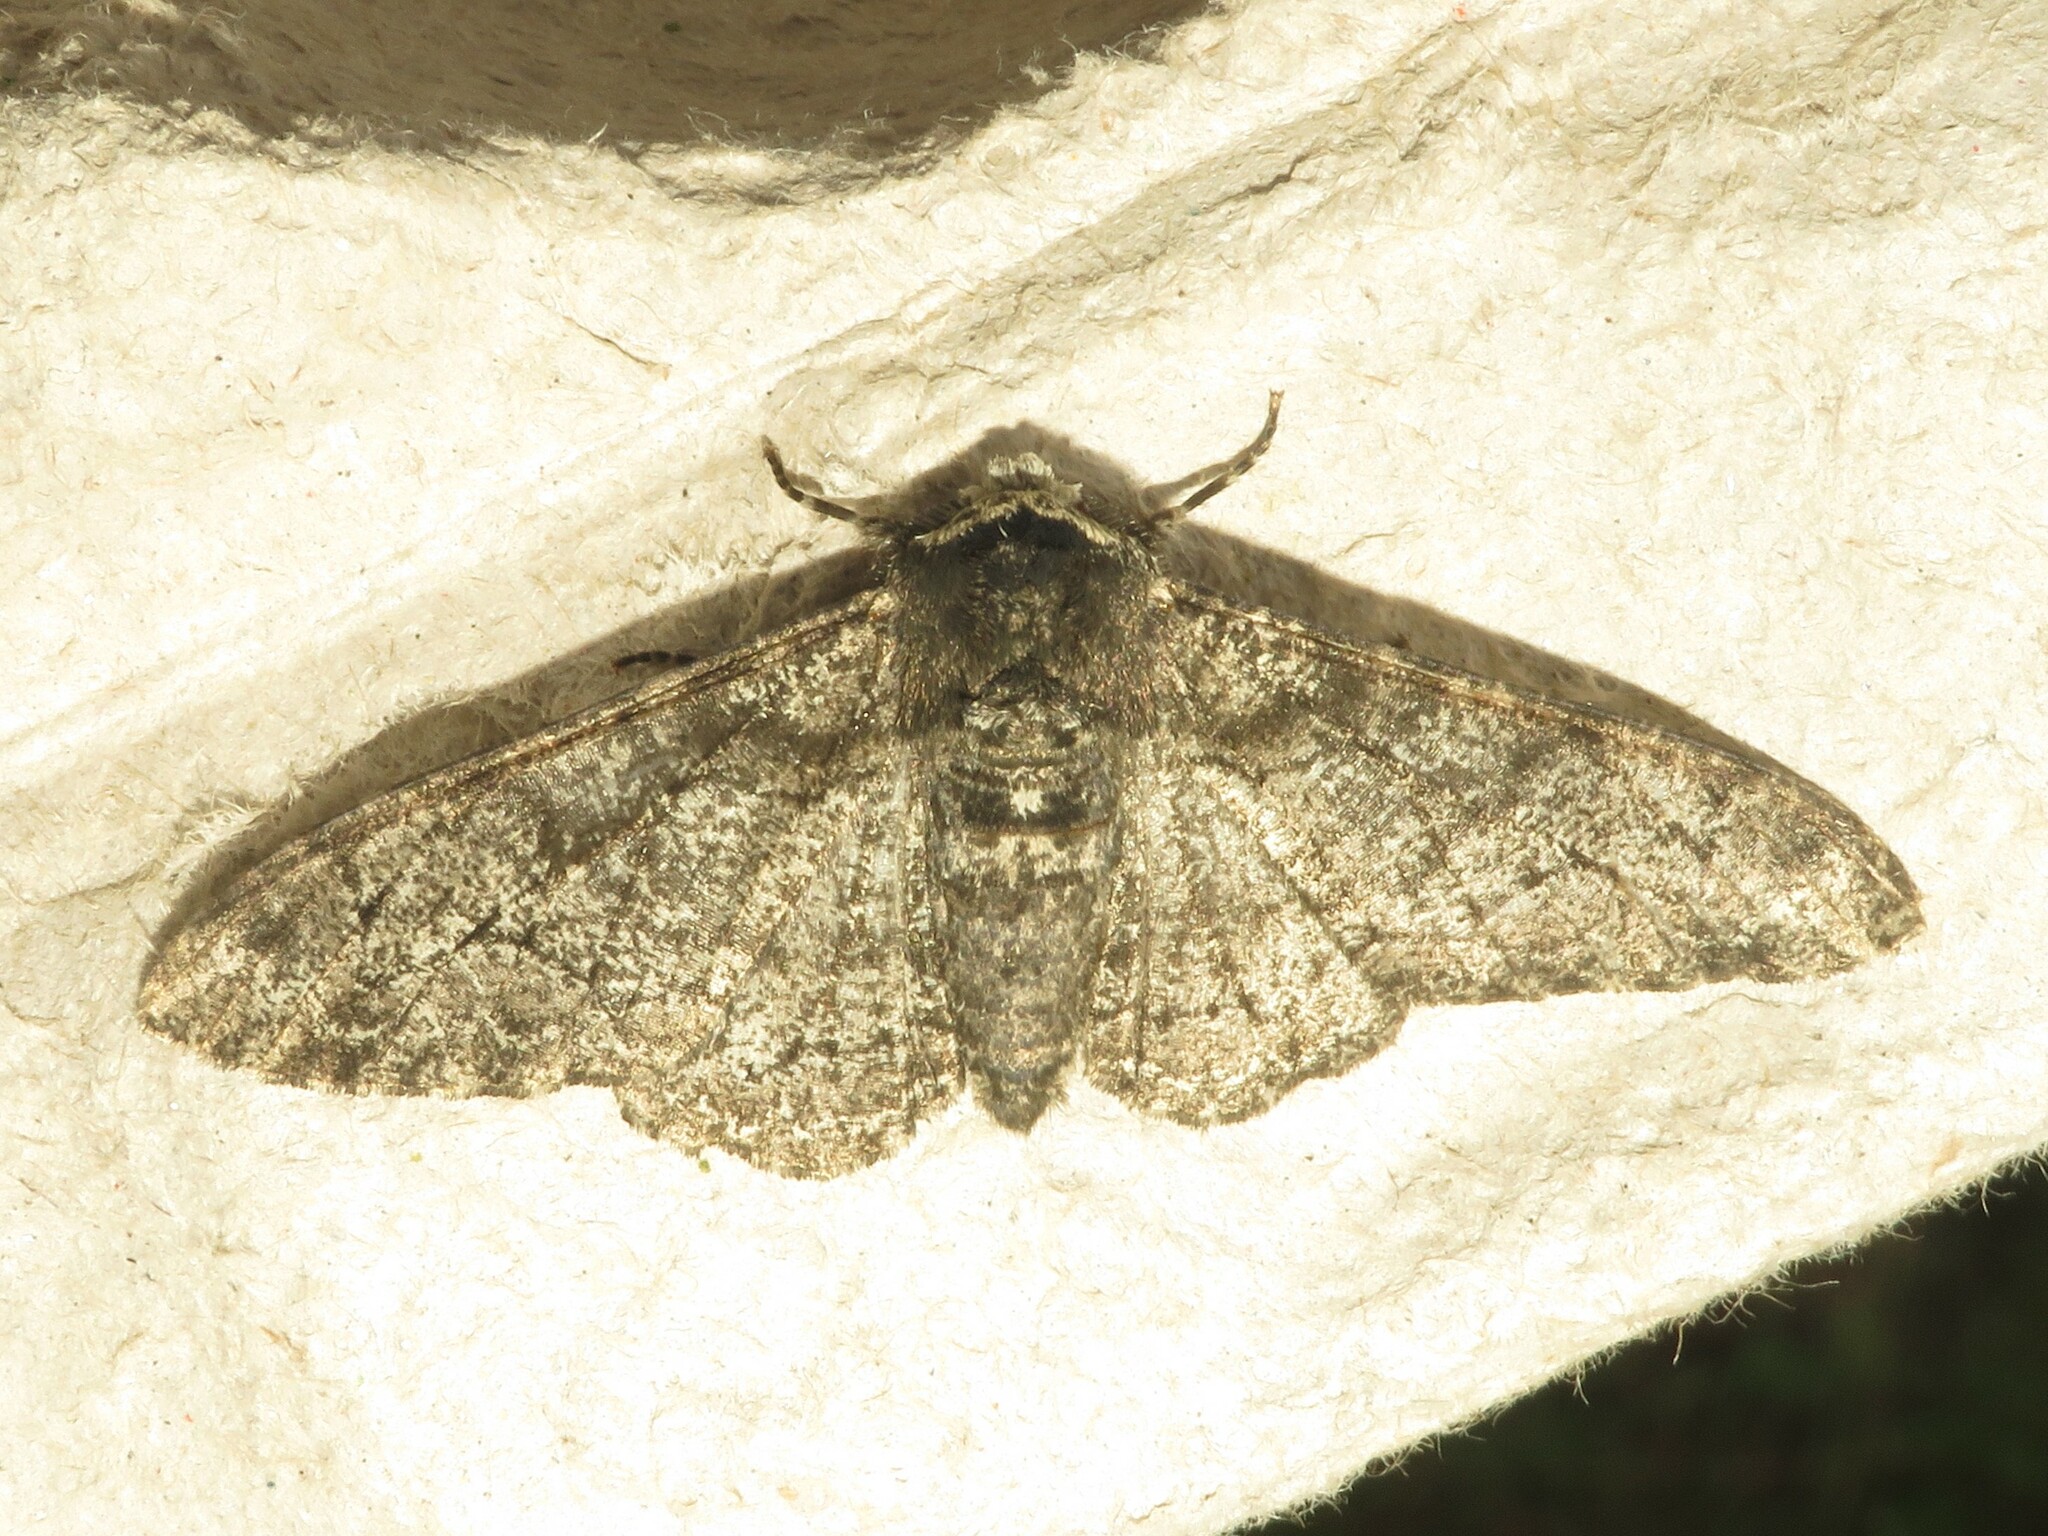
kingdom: Animalia
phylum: Arthropoda
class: Insecta
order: Lepidoptera
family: Geometridae
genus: Biston
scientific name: Biston betularia
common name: Peppered moth
